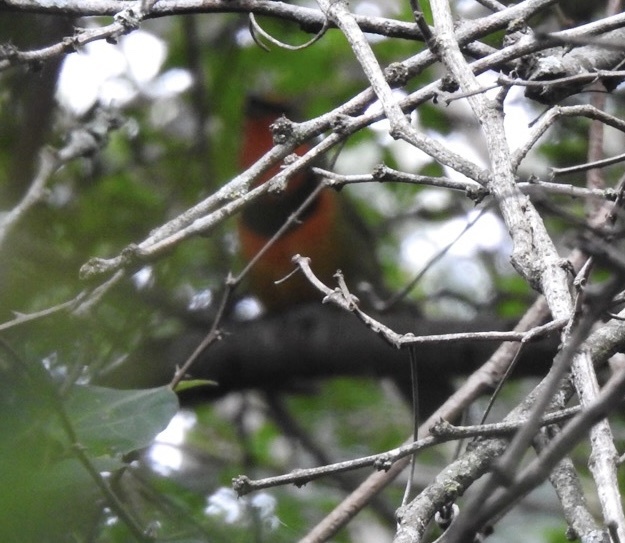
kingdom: Animalia
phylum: Chordata
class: Aves
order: Passeriformes
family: Malaconotidae
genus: Telophorus
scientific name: Telophorus viridis
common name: Gorgeous bushshrike
